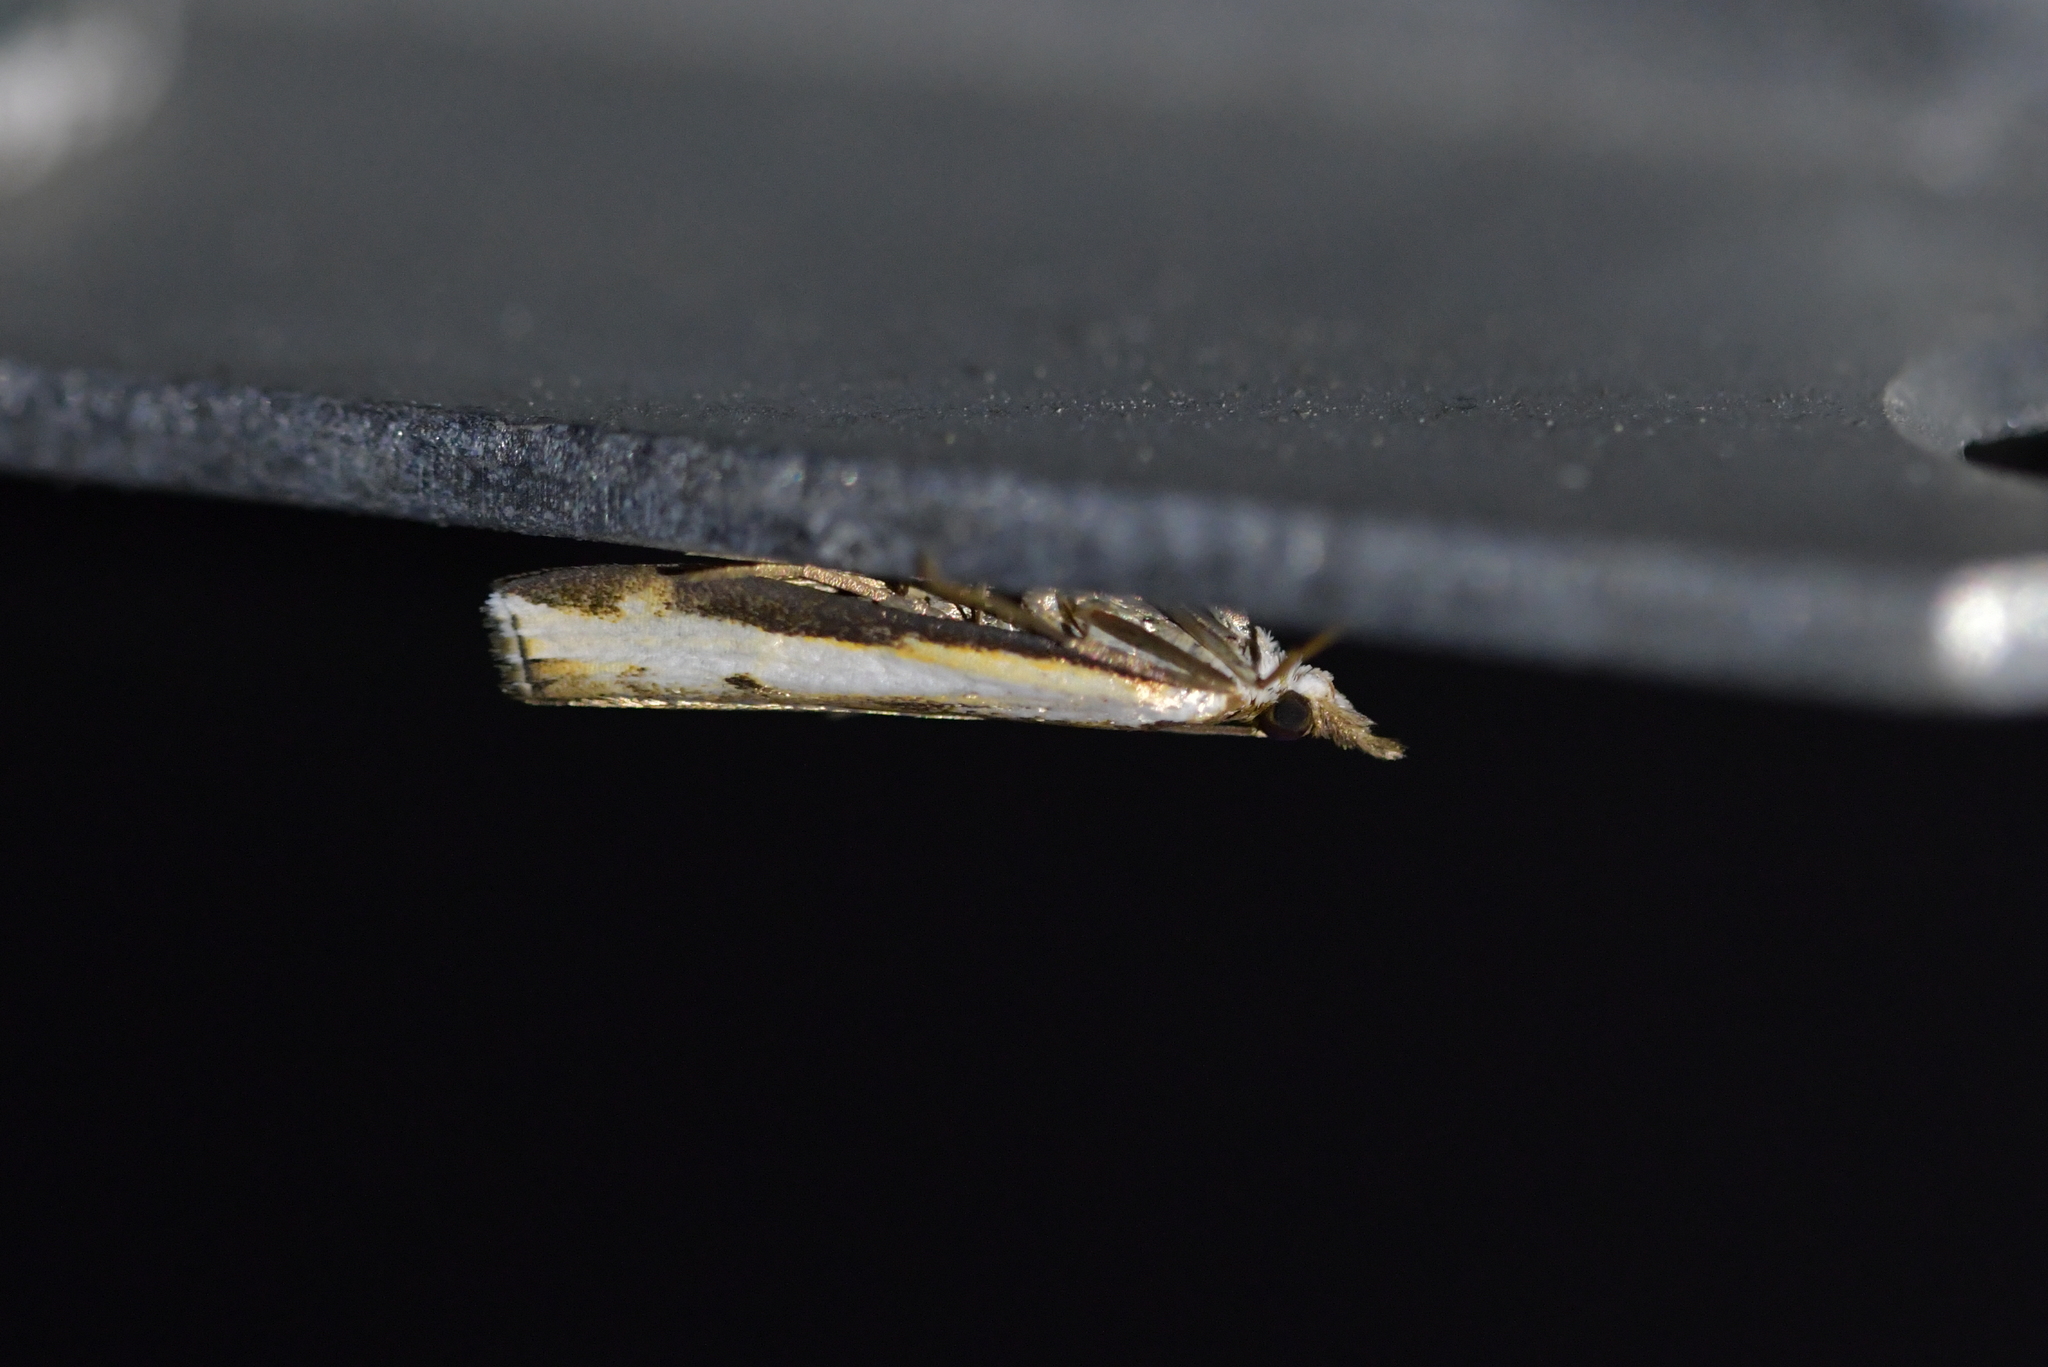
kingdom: Animalia
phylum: Arthropoda
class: Insecta
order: Lepidoptera
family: Crambidae
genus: Orocrambus
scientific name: Orocrambus flexuosellus
